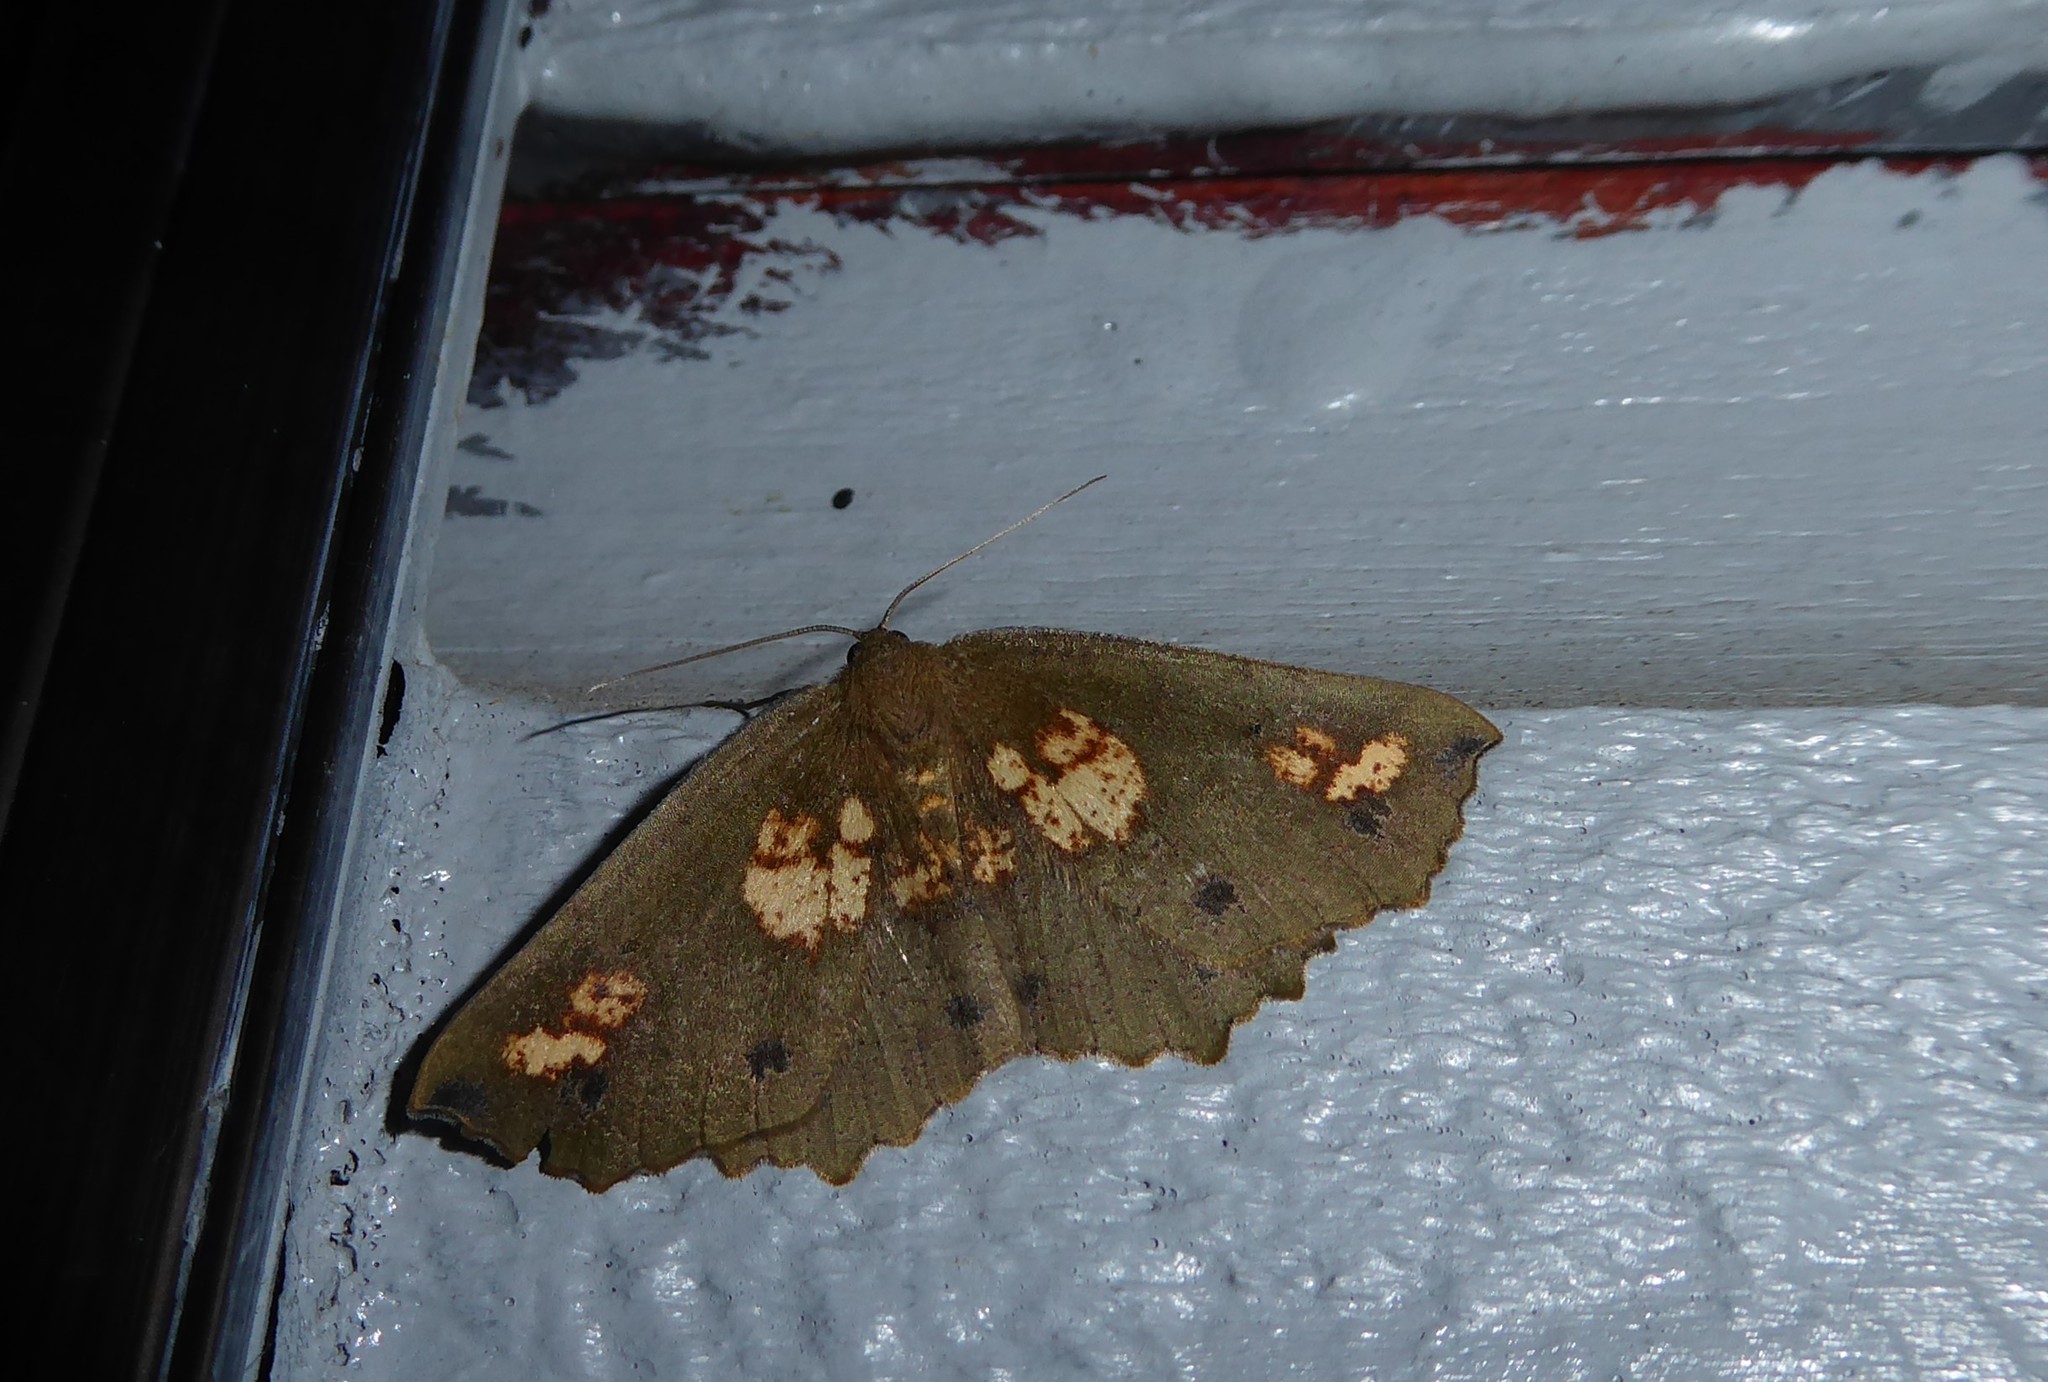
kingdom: Animalia
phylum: Arthropoda
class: Insecta
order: Lepidoptera
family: Geometridae
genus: Xyridacma
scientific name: Xyridacma ustaria
